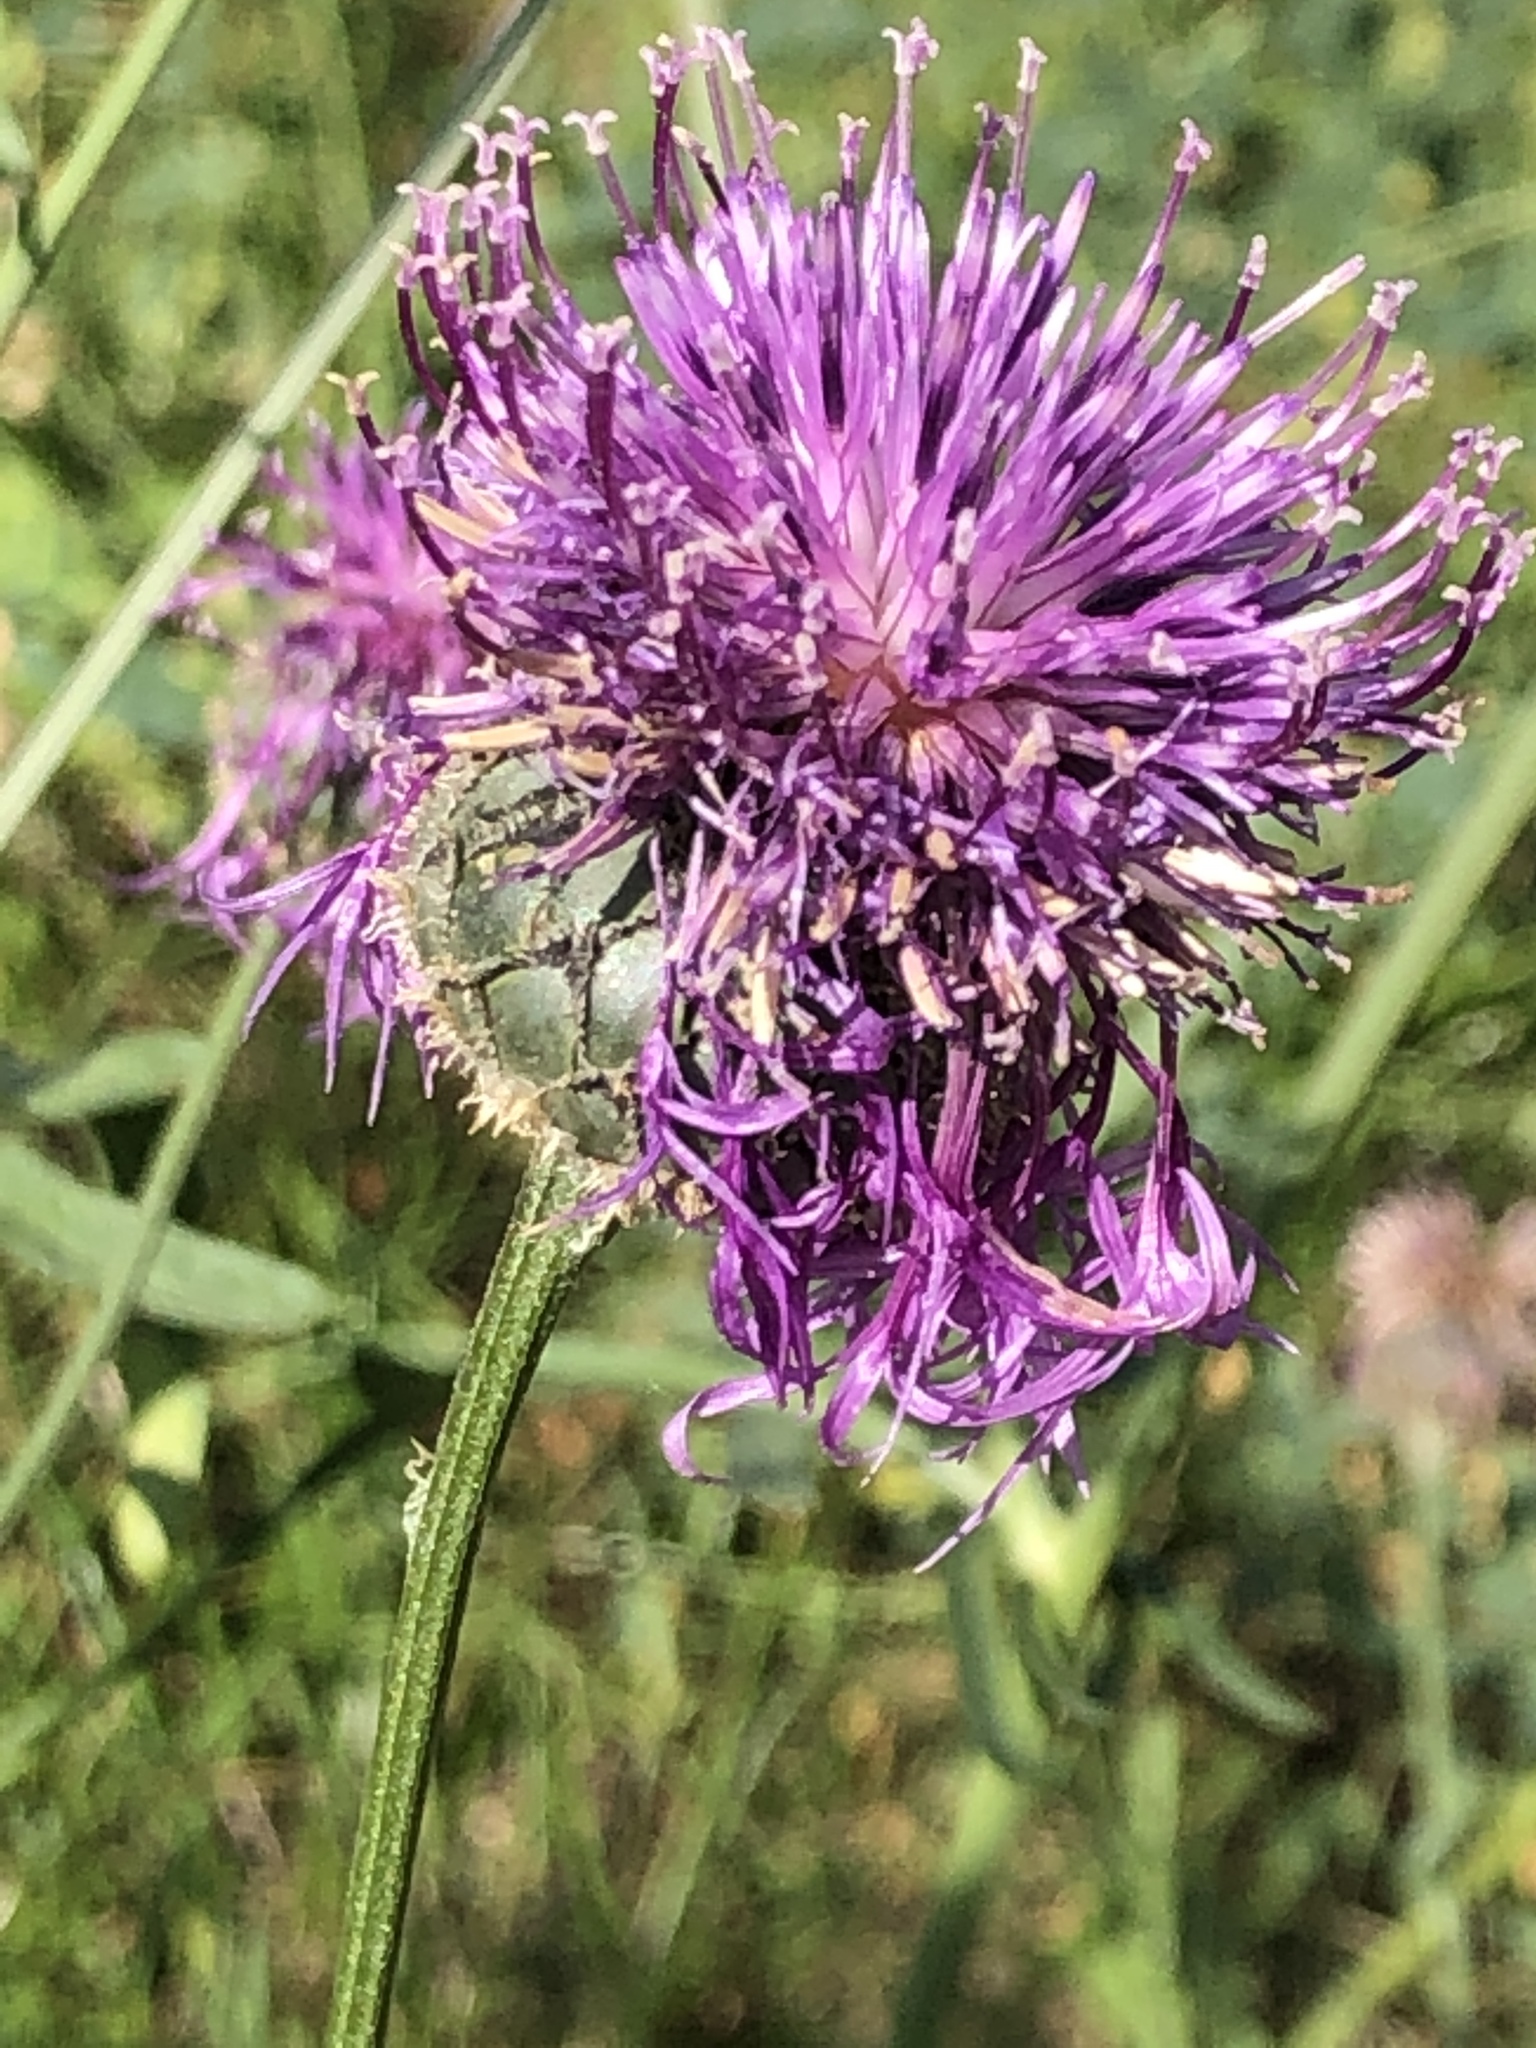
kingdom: Plantae
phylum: Tracheophyta
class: Magnoliopsida
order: Asterales
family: Asteraceae
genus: Centaurea
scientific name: Centaurea scabiosa
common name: Greater knapweed
